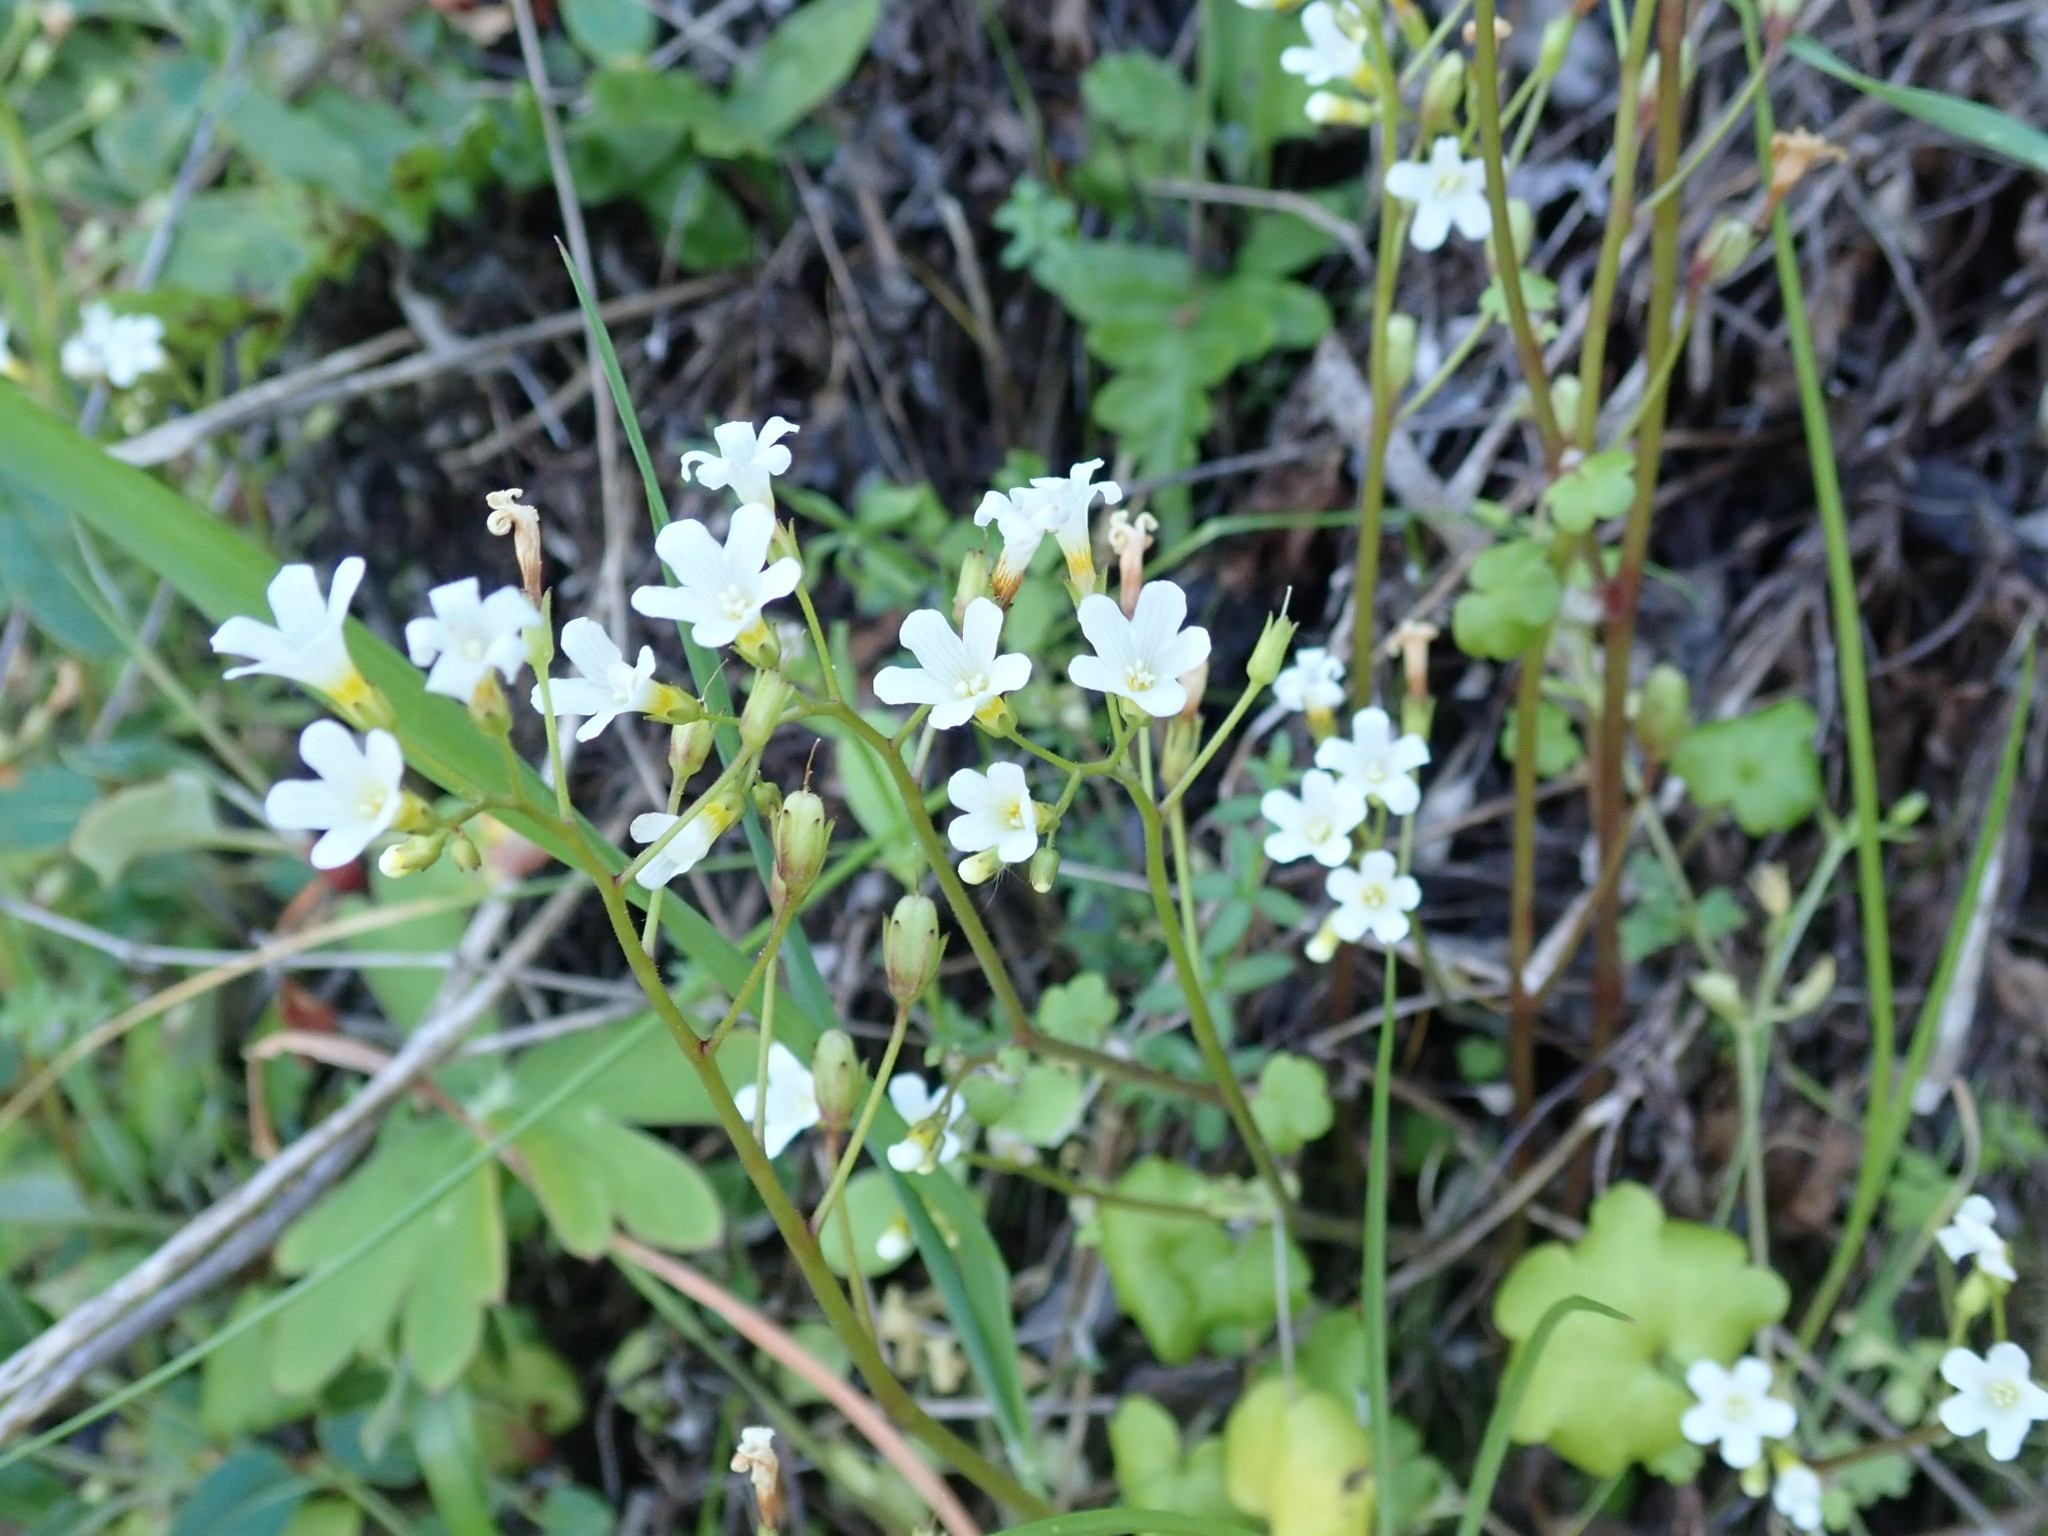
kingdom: Plantae
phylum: Tracheophyta
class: Magnoliopsida
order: Boraginales
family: Hydrophyllaceae
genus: Romanzoffia
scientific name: Romanzoffia californica
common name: California mistmaiden
